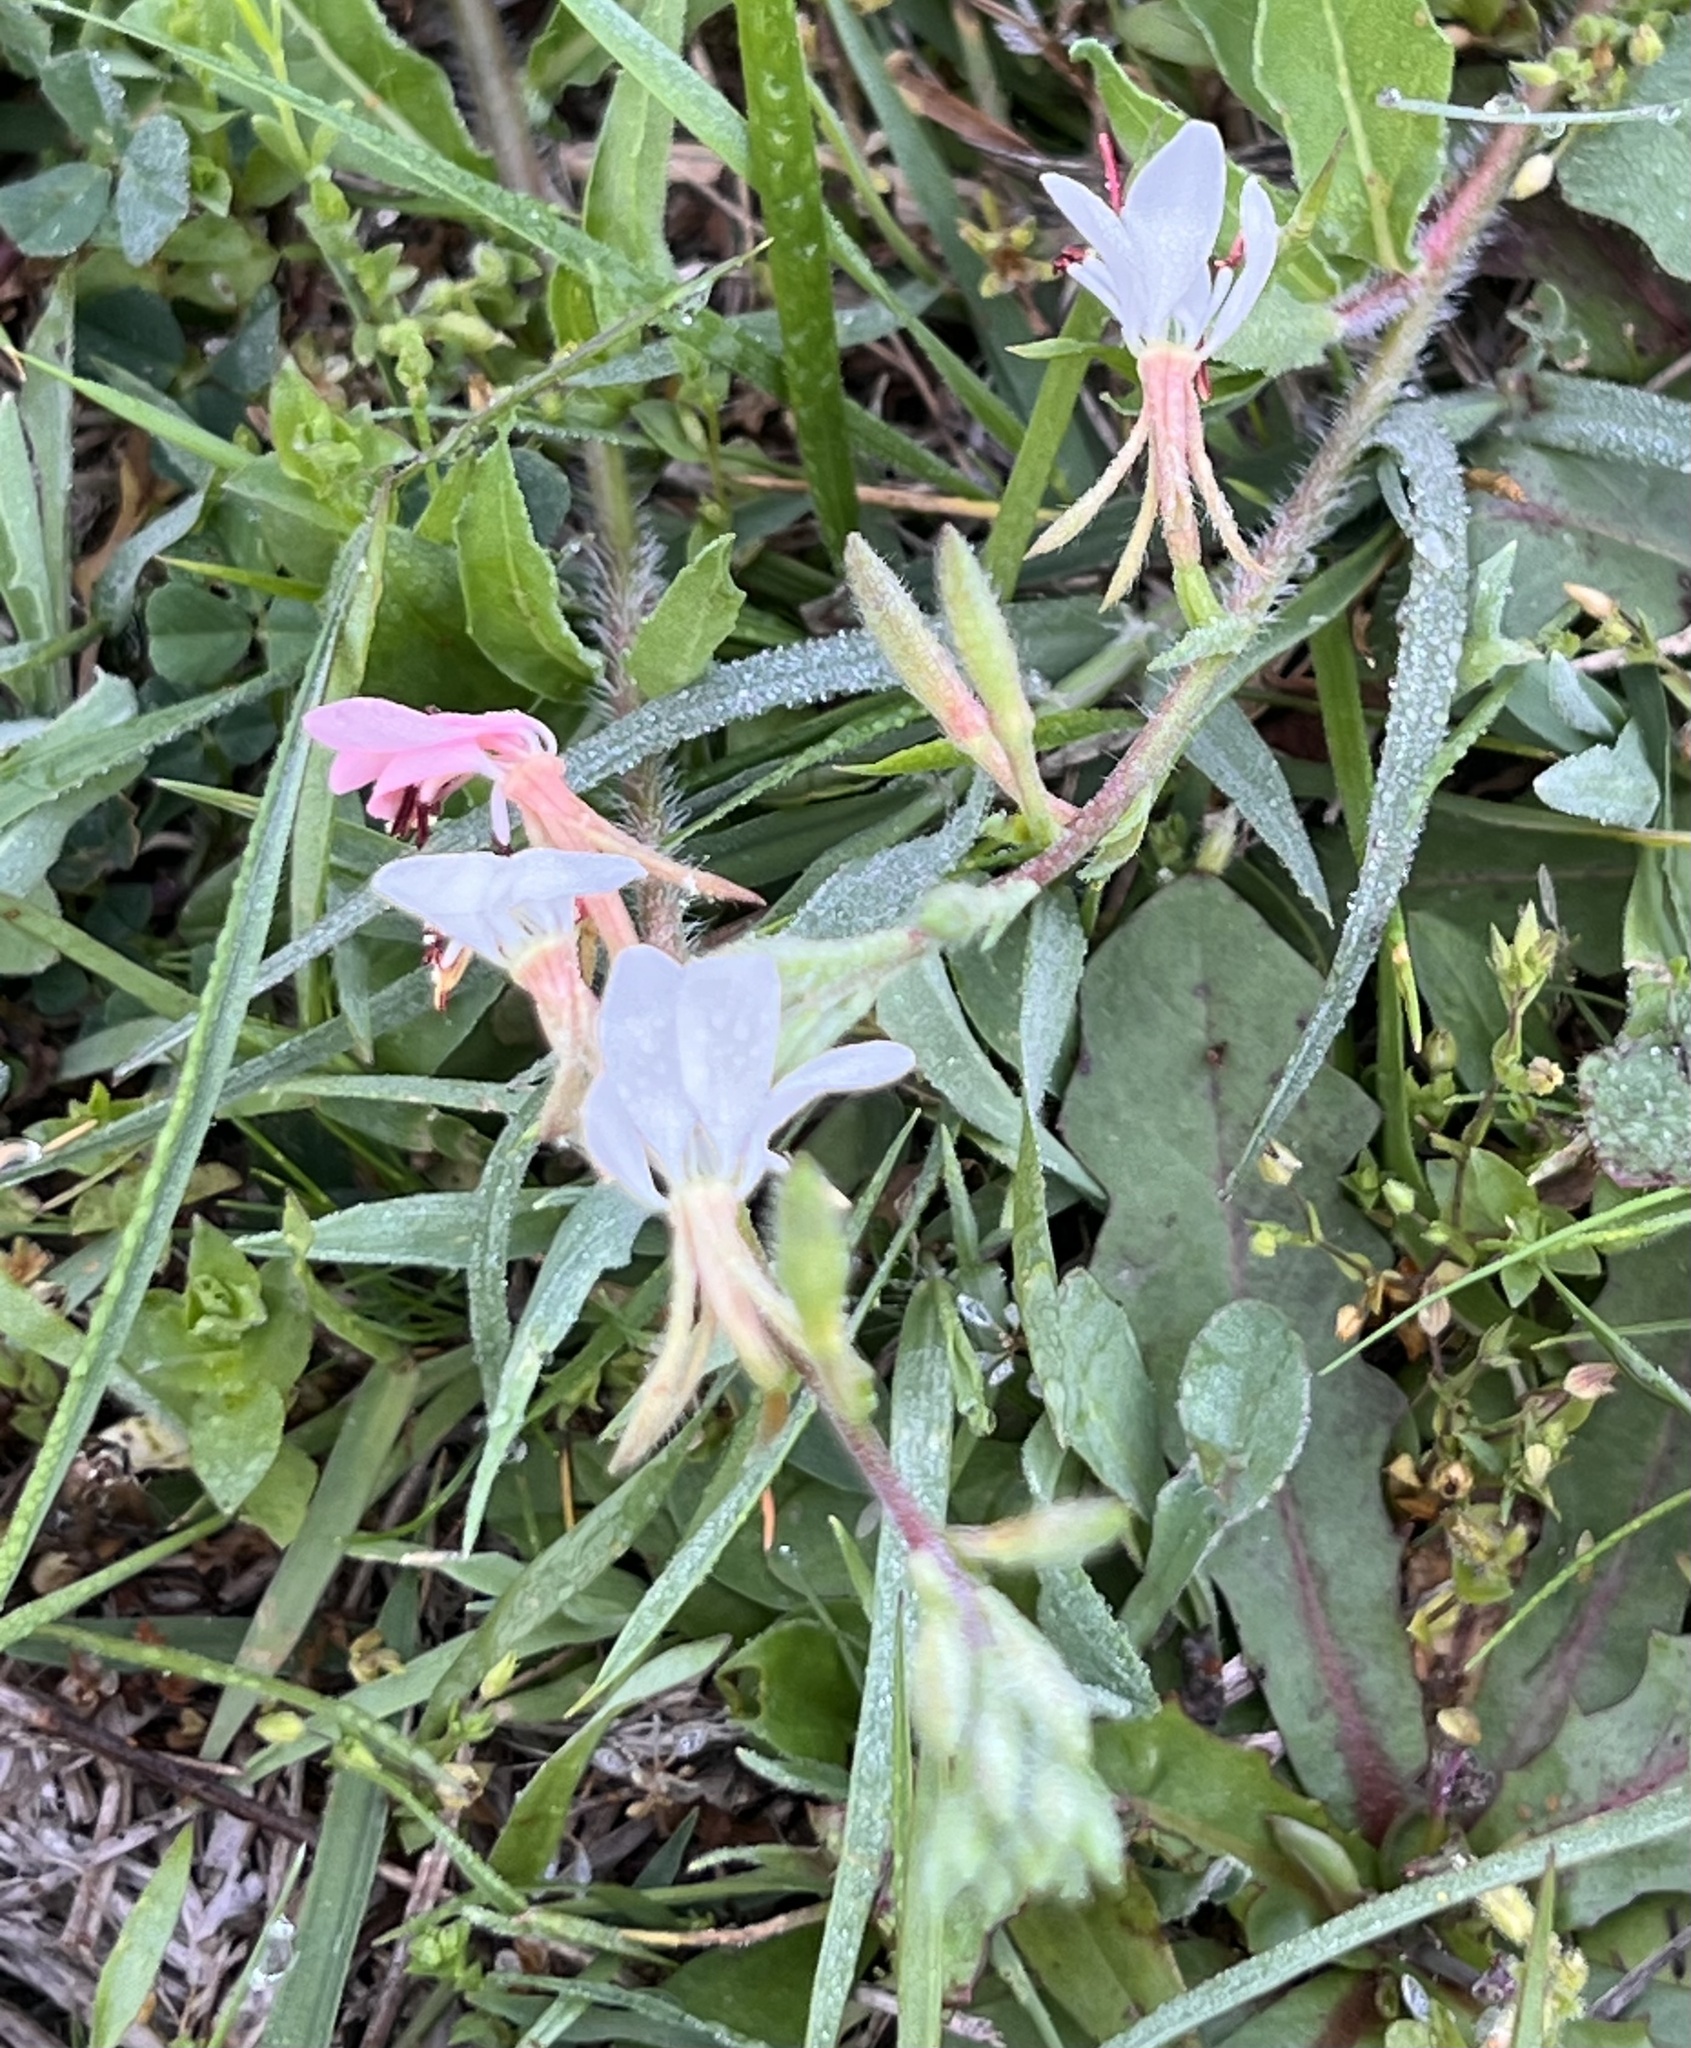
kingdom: Plantae
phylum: Tracheophyta
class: Magnoliopsida
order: Myrtales
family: Onagraceae
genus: Oenothera
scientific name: Oenothera suffulta
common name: Kisses
